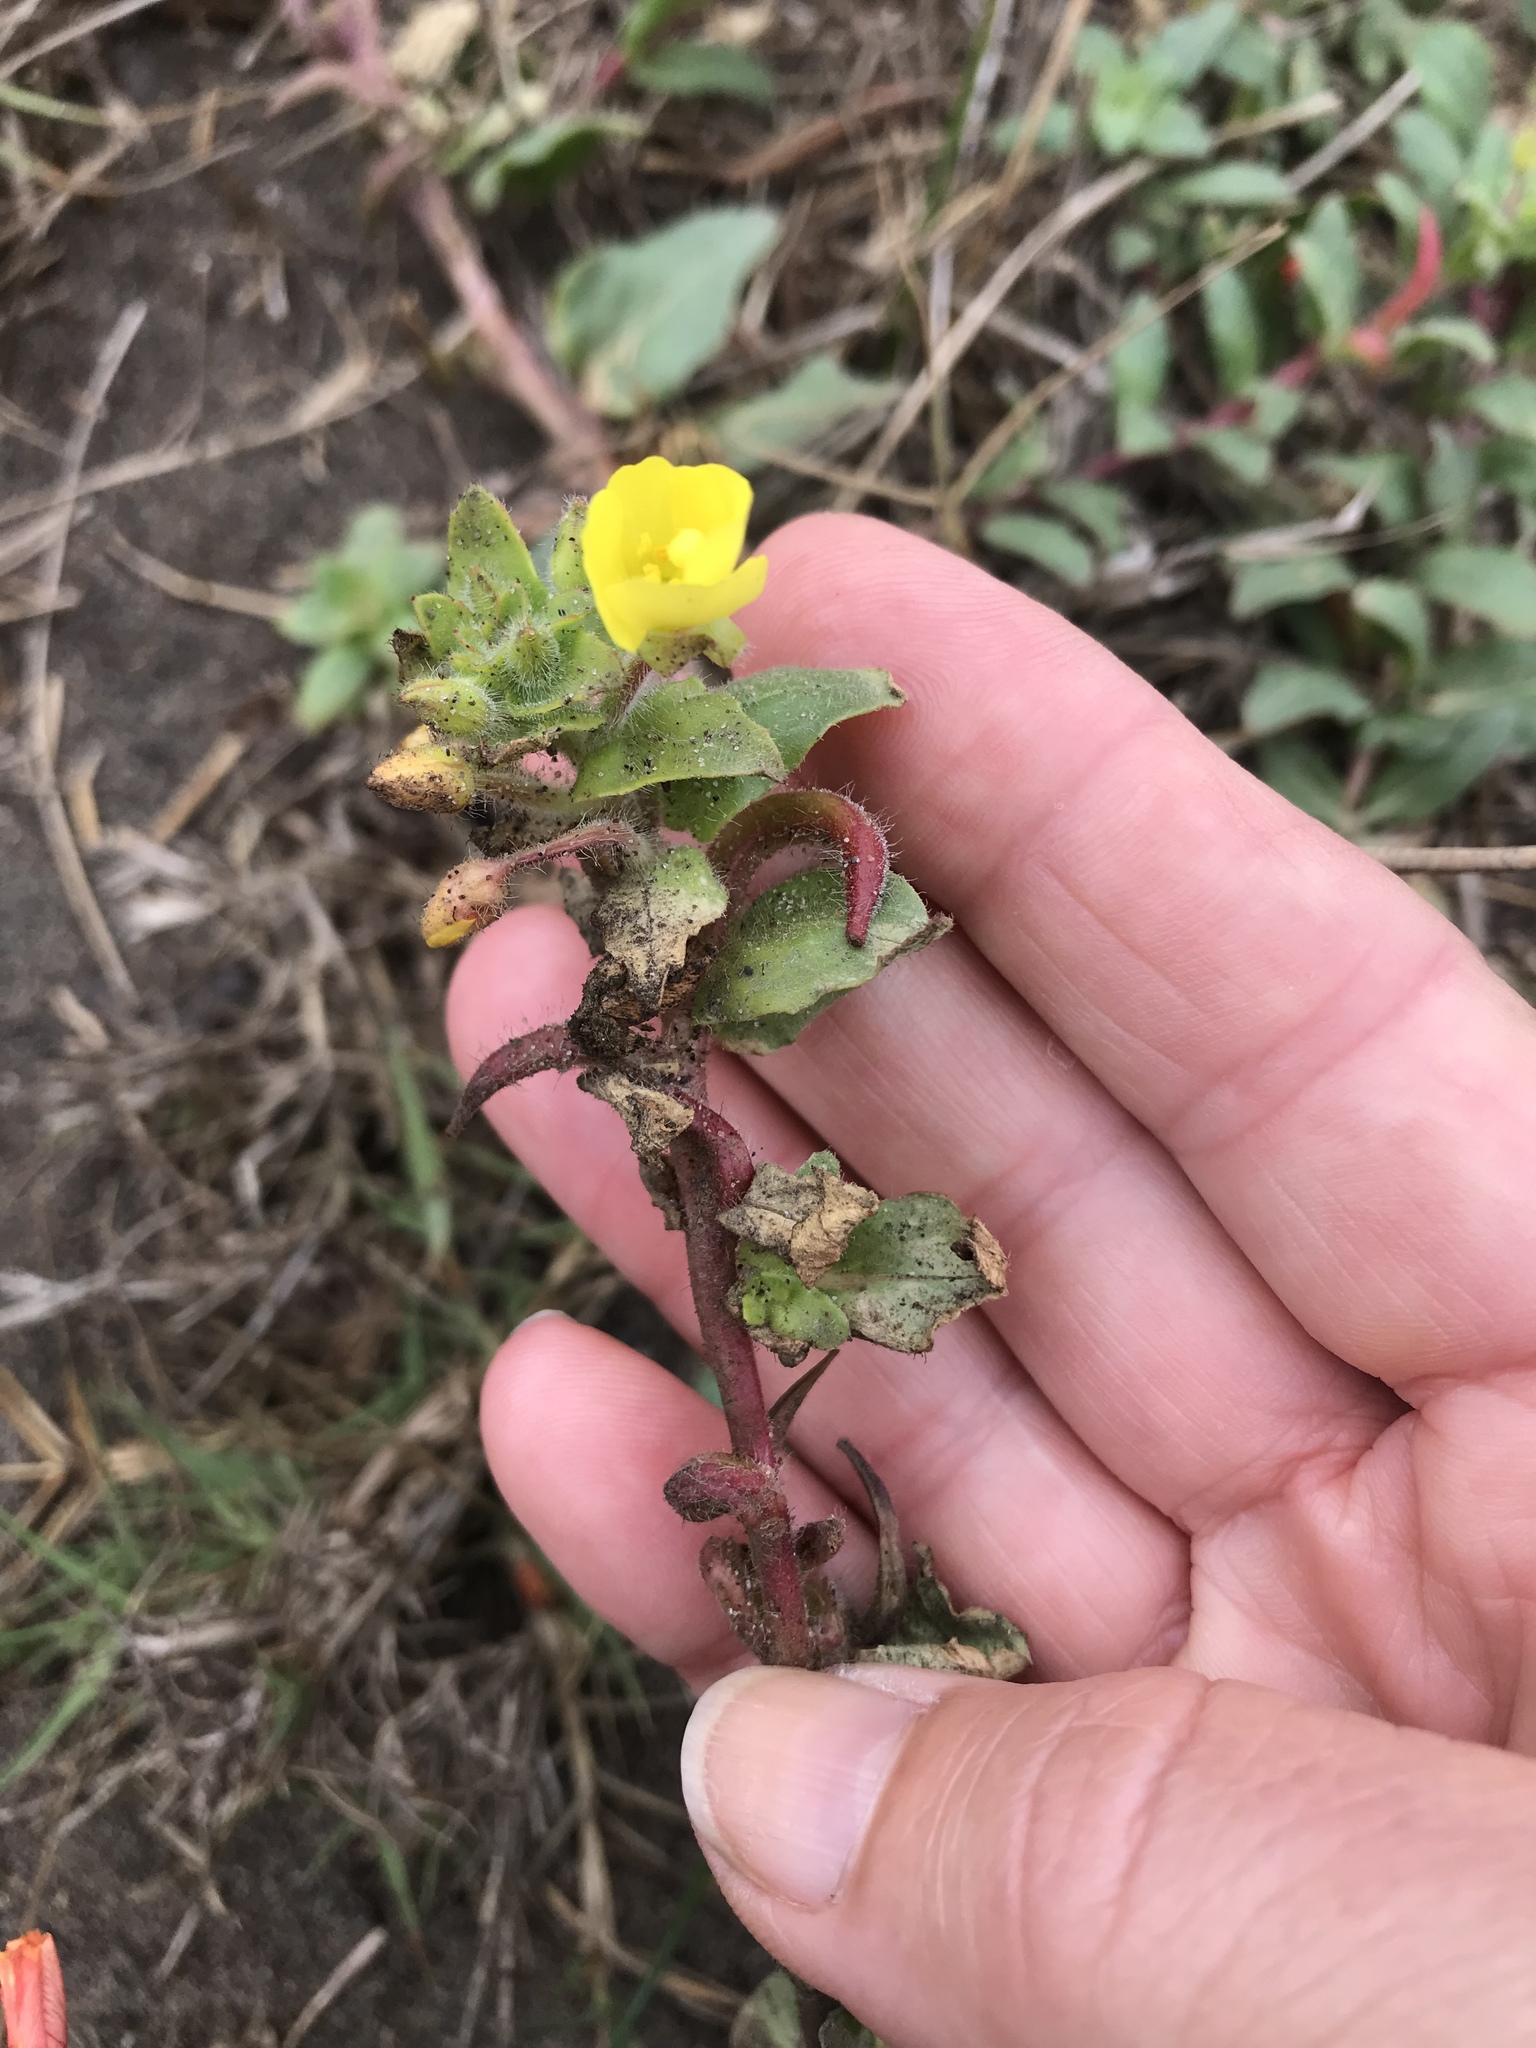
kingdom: Plantae
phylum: Tracheophyta
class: Magnoliopsida
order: Myrtales
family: Onagraceae
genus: Camissoniopsis
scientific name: Camissoniopsis cheiranthifolia
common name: Beach suncup
